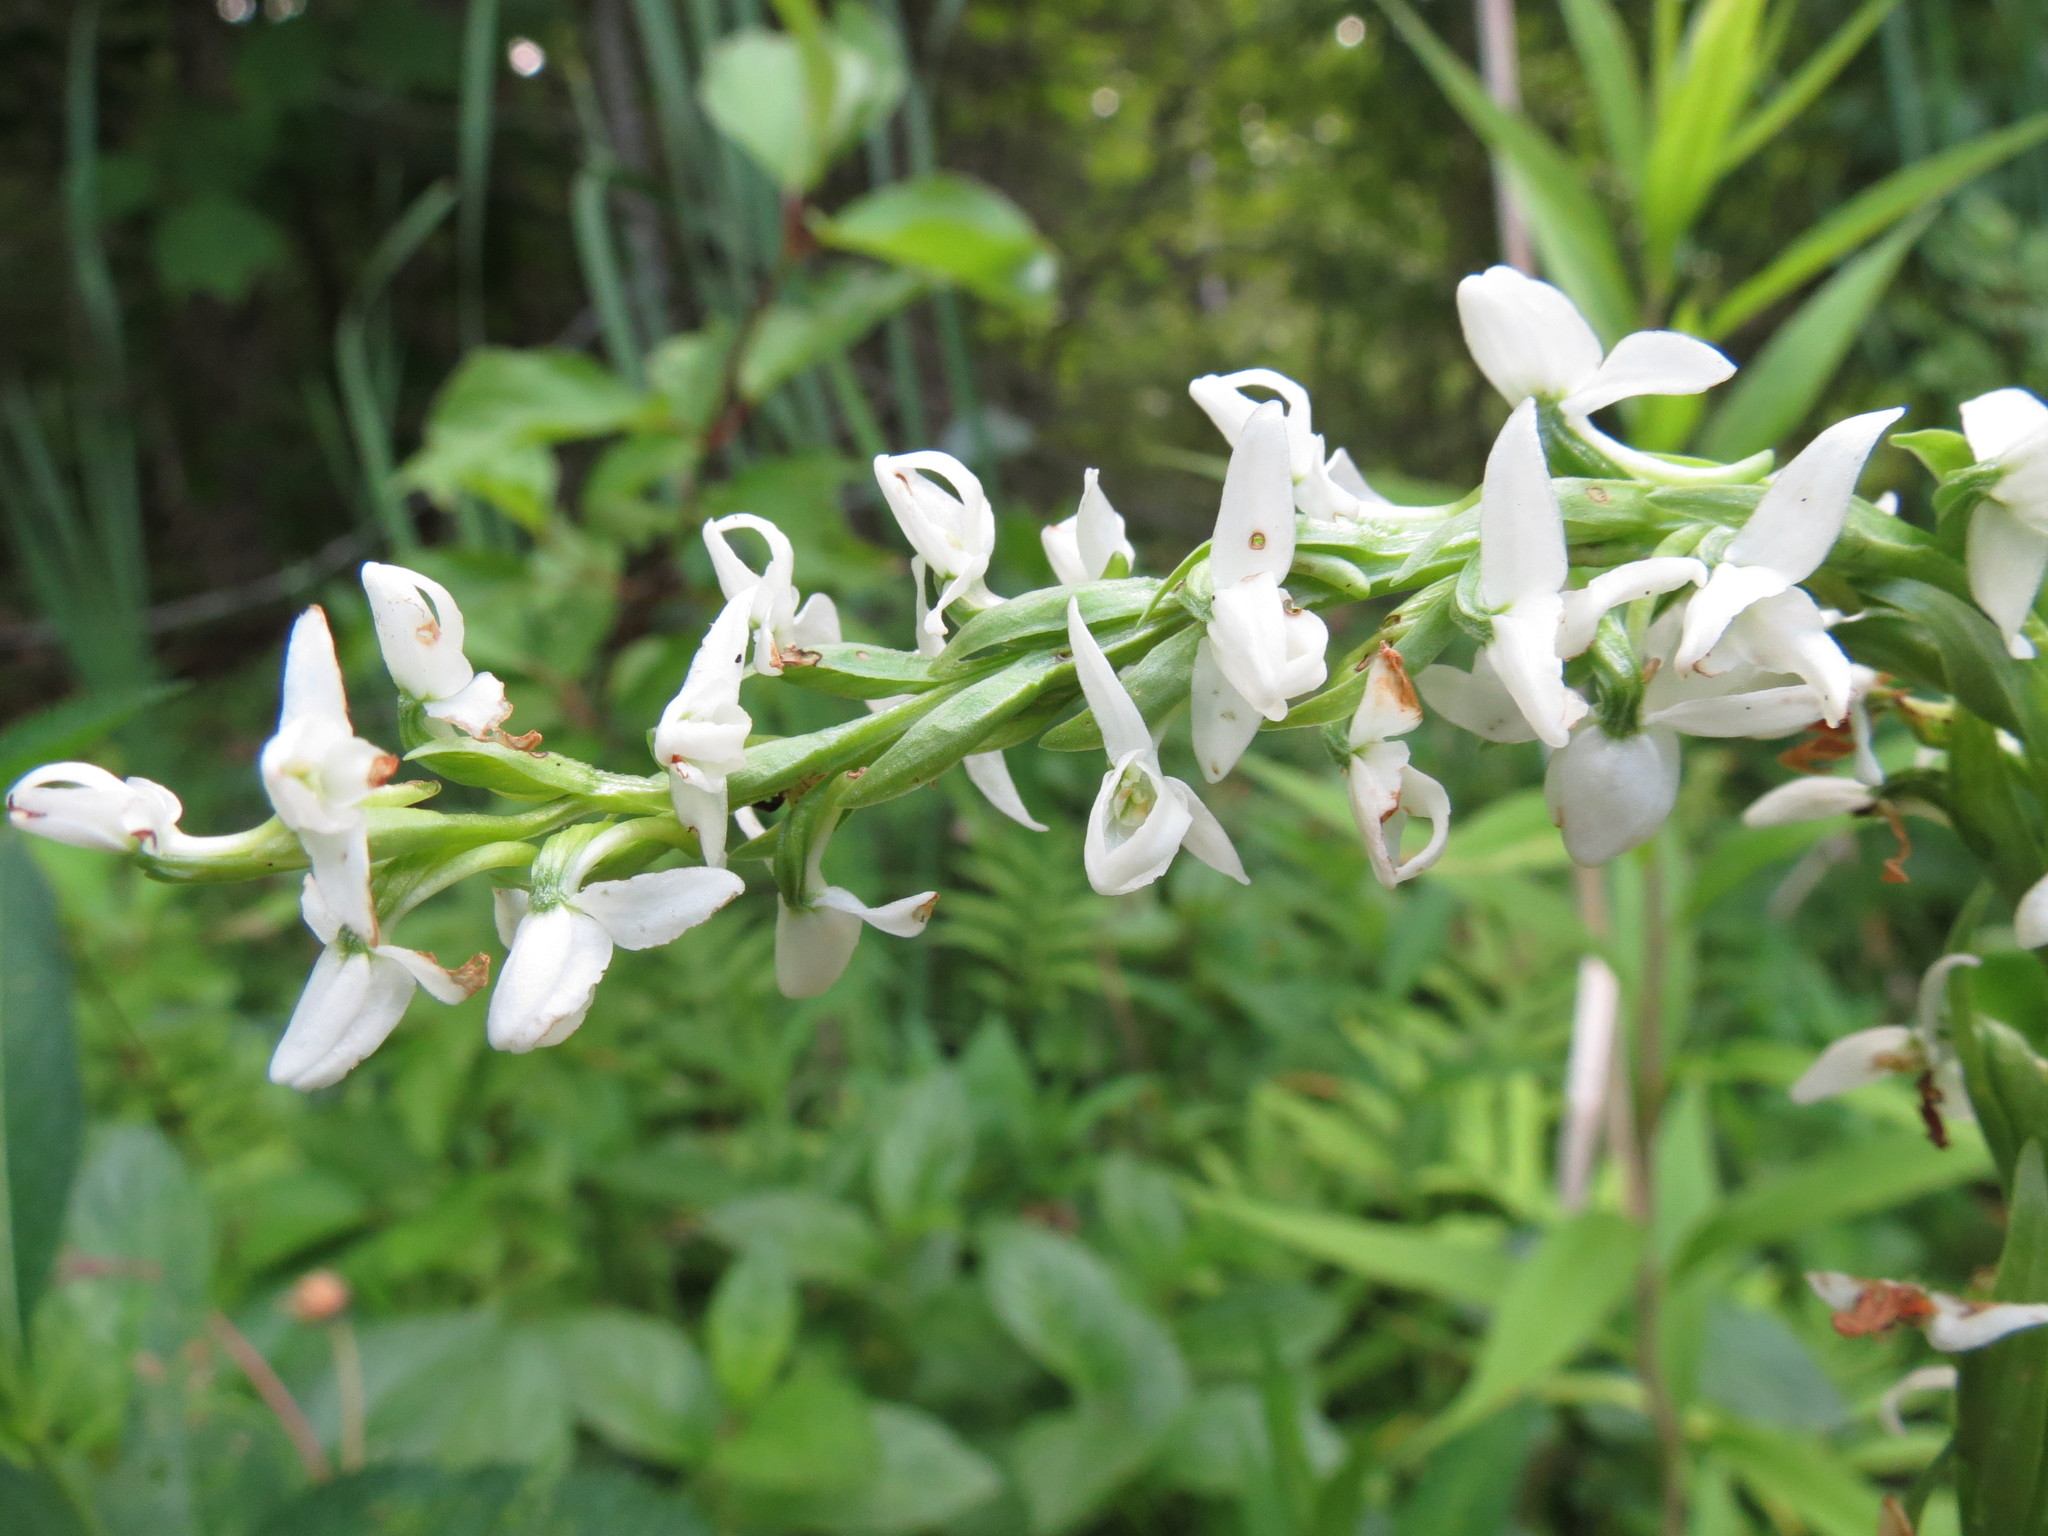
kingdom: Plantae
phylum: Tracheophyta
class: Liliopsida
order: Asparagales
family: Orchidaceae
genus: Platanthera
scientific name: Platanthera dilatata
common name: Bog candles
